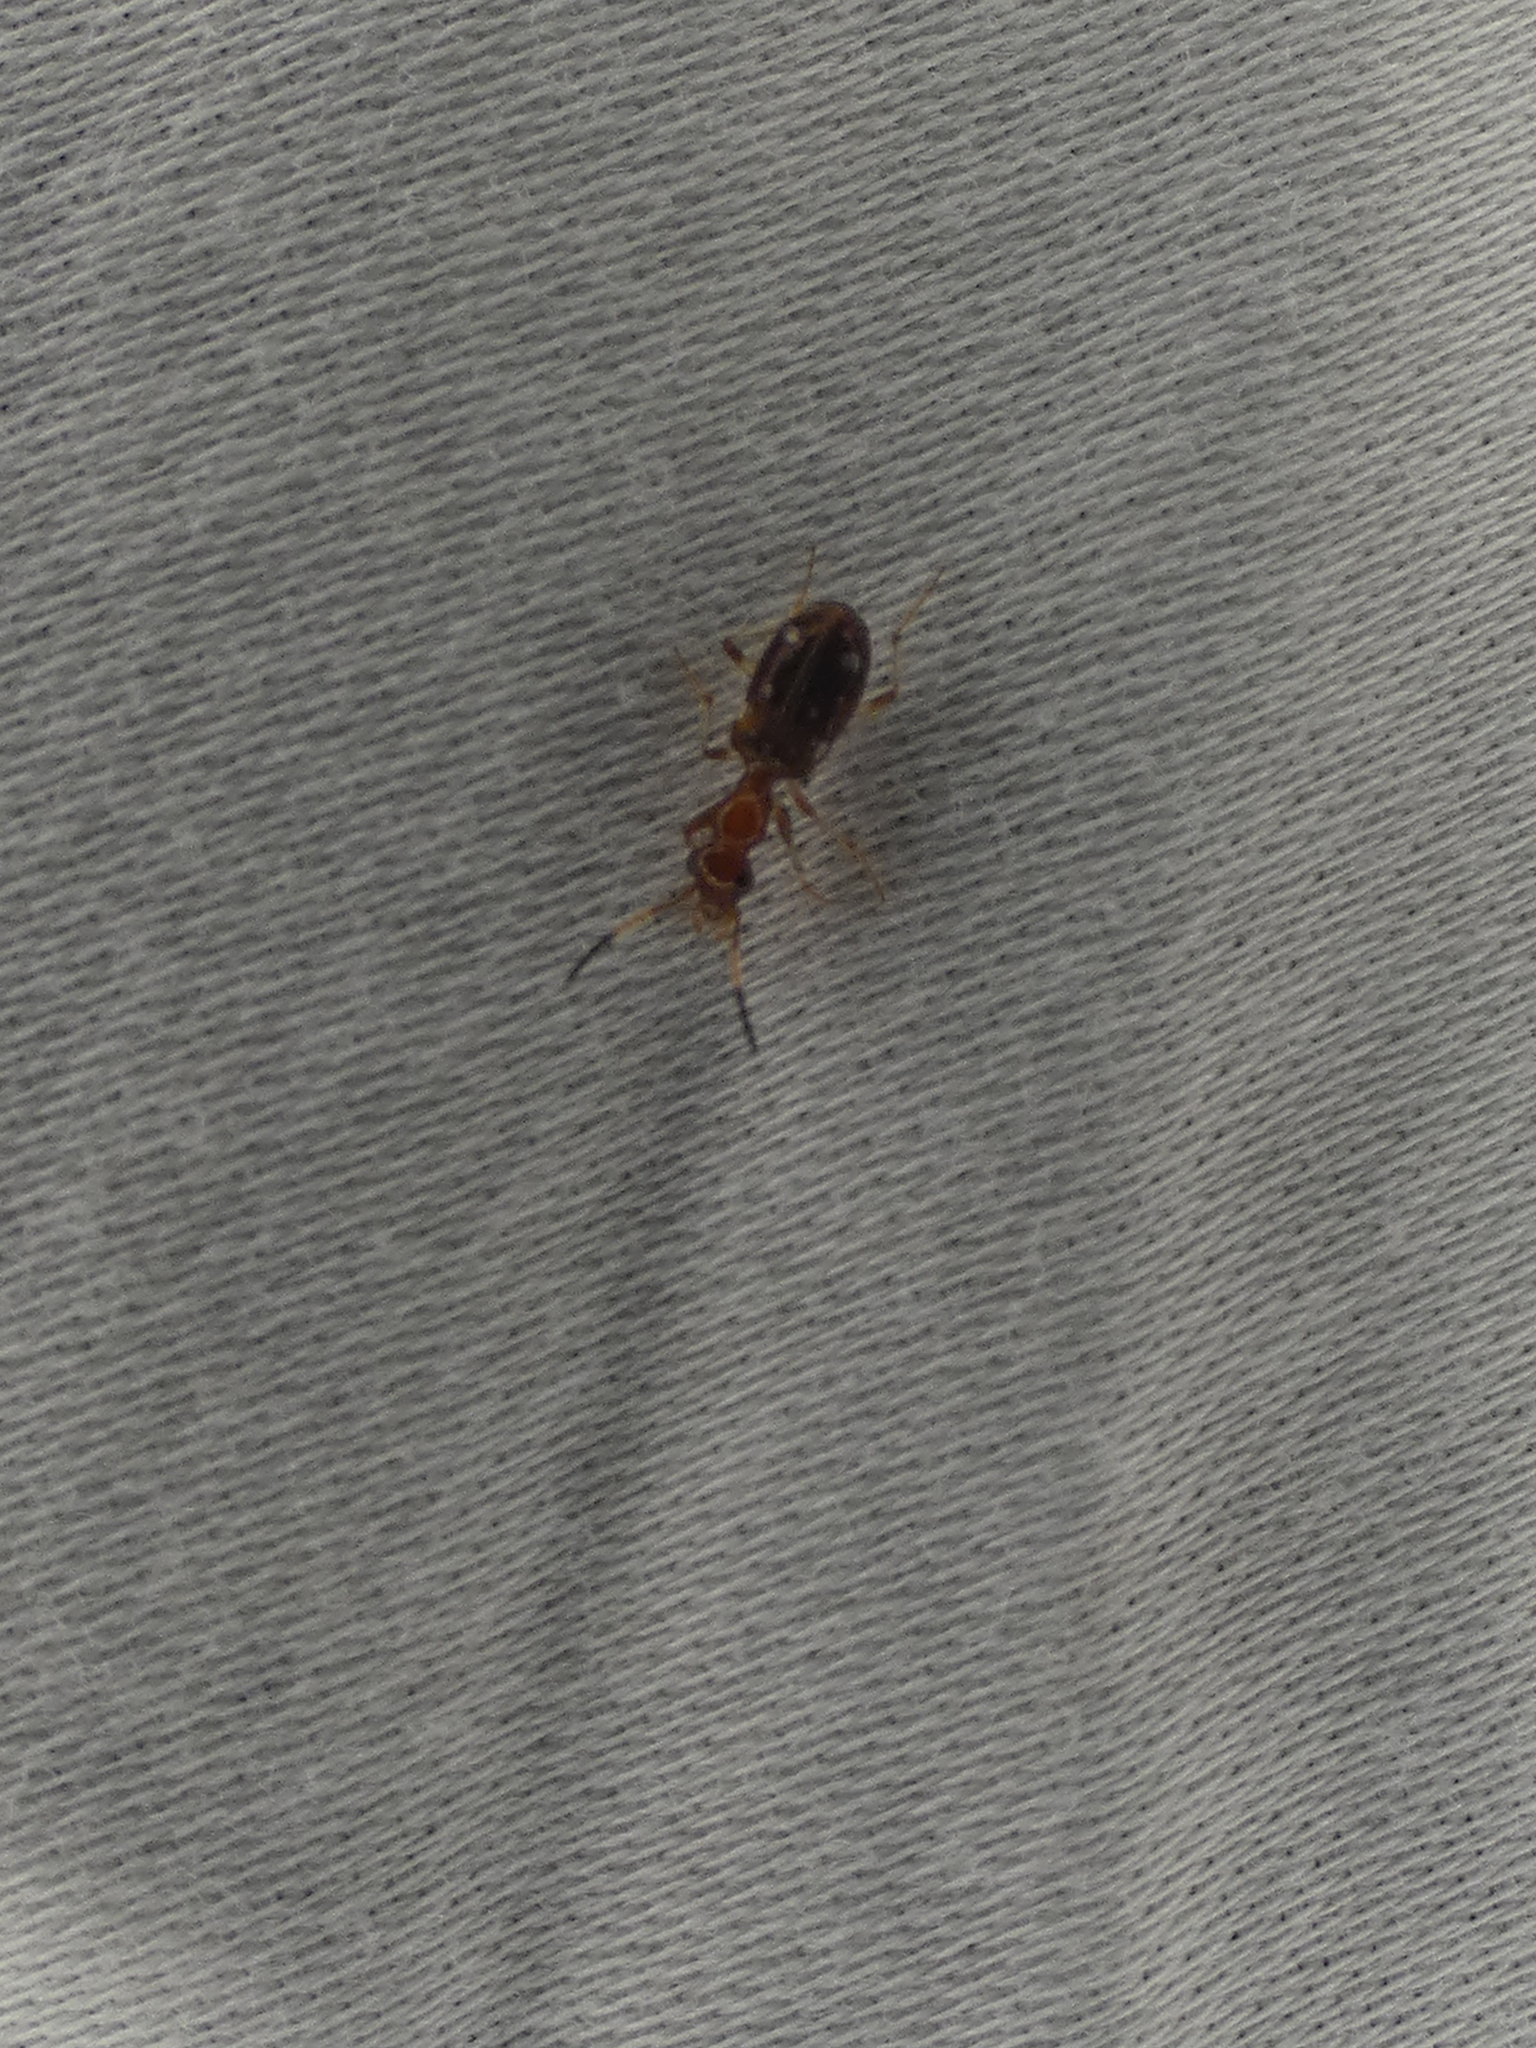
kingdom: Animalia
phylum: Arthropoda
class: Insecta
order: Coleoptera
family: Carabidae
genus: Ega
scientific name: Ega sallei
